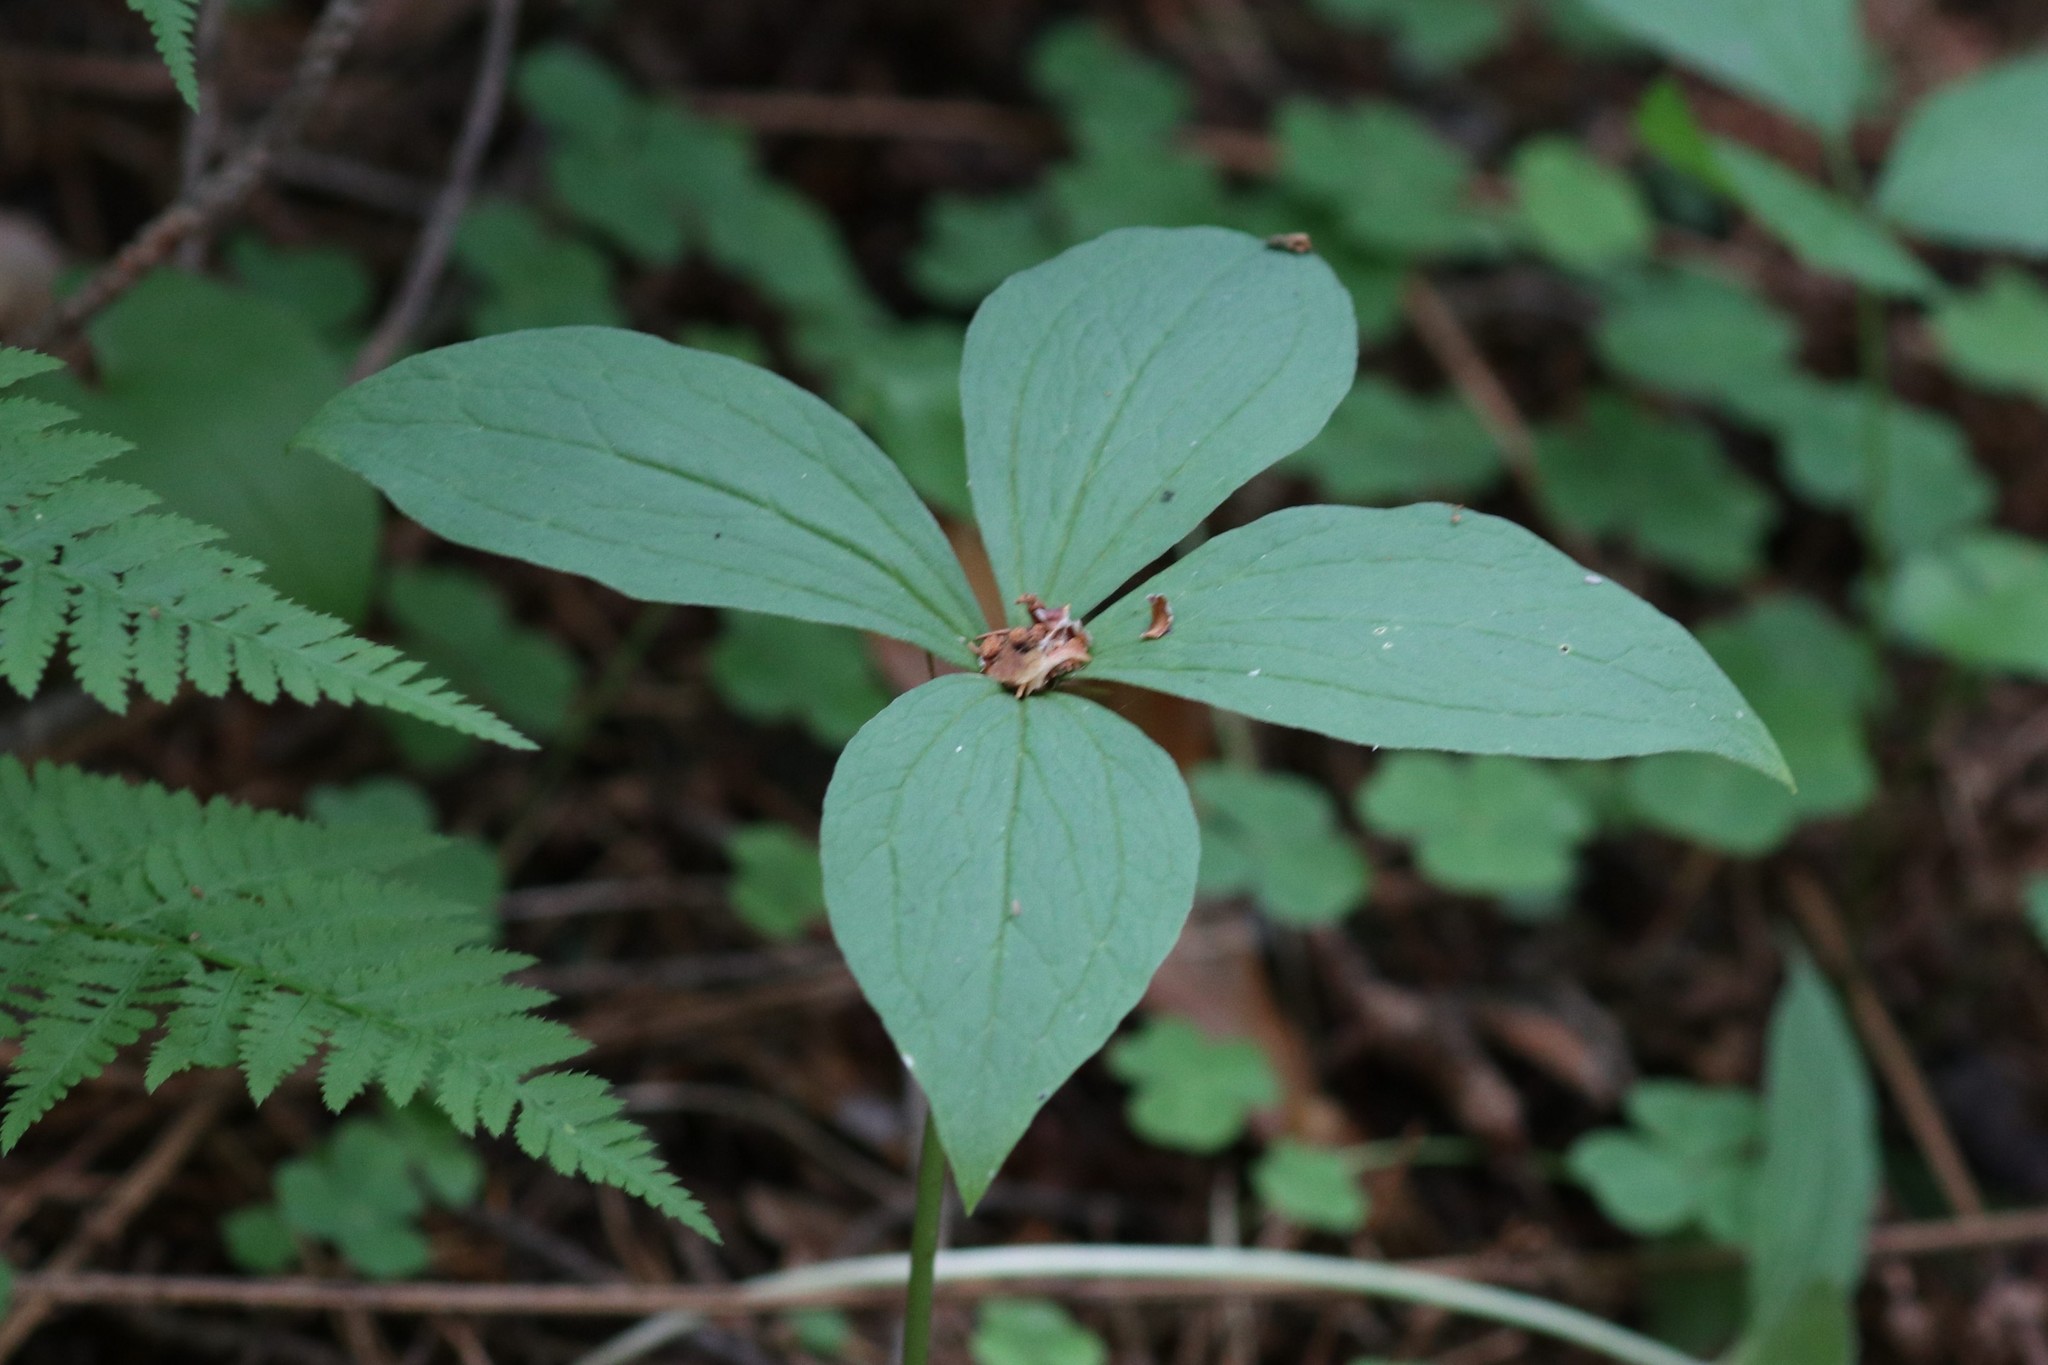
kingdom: Plantae
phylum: Tracheophyta
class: Liliopsida
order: Liliales
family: Melanthiaceae
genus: Paris
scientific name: Paris quadrifolia
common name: Herb-paris
